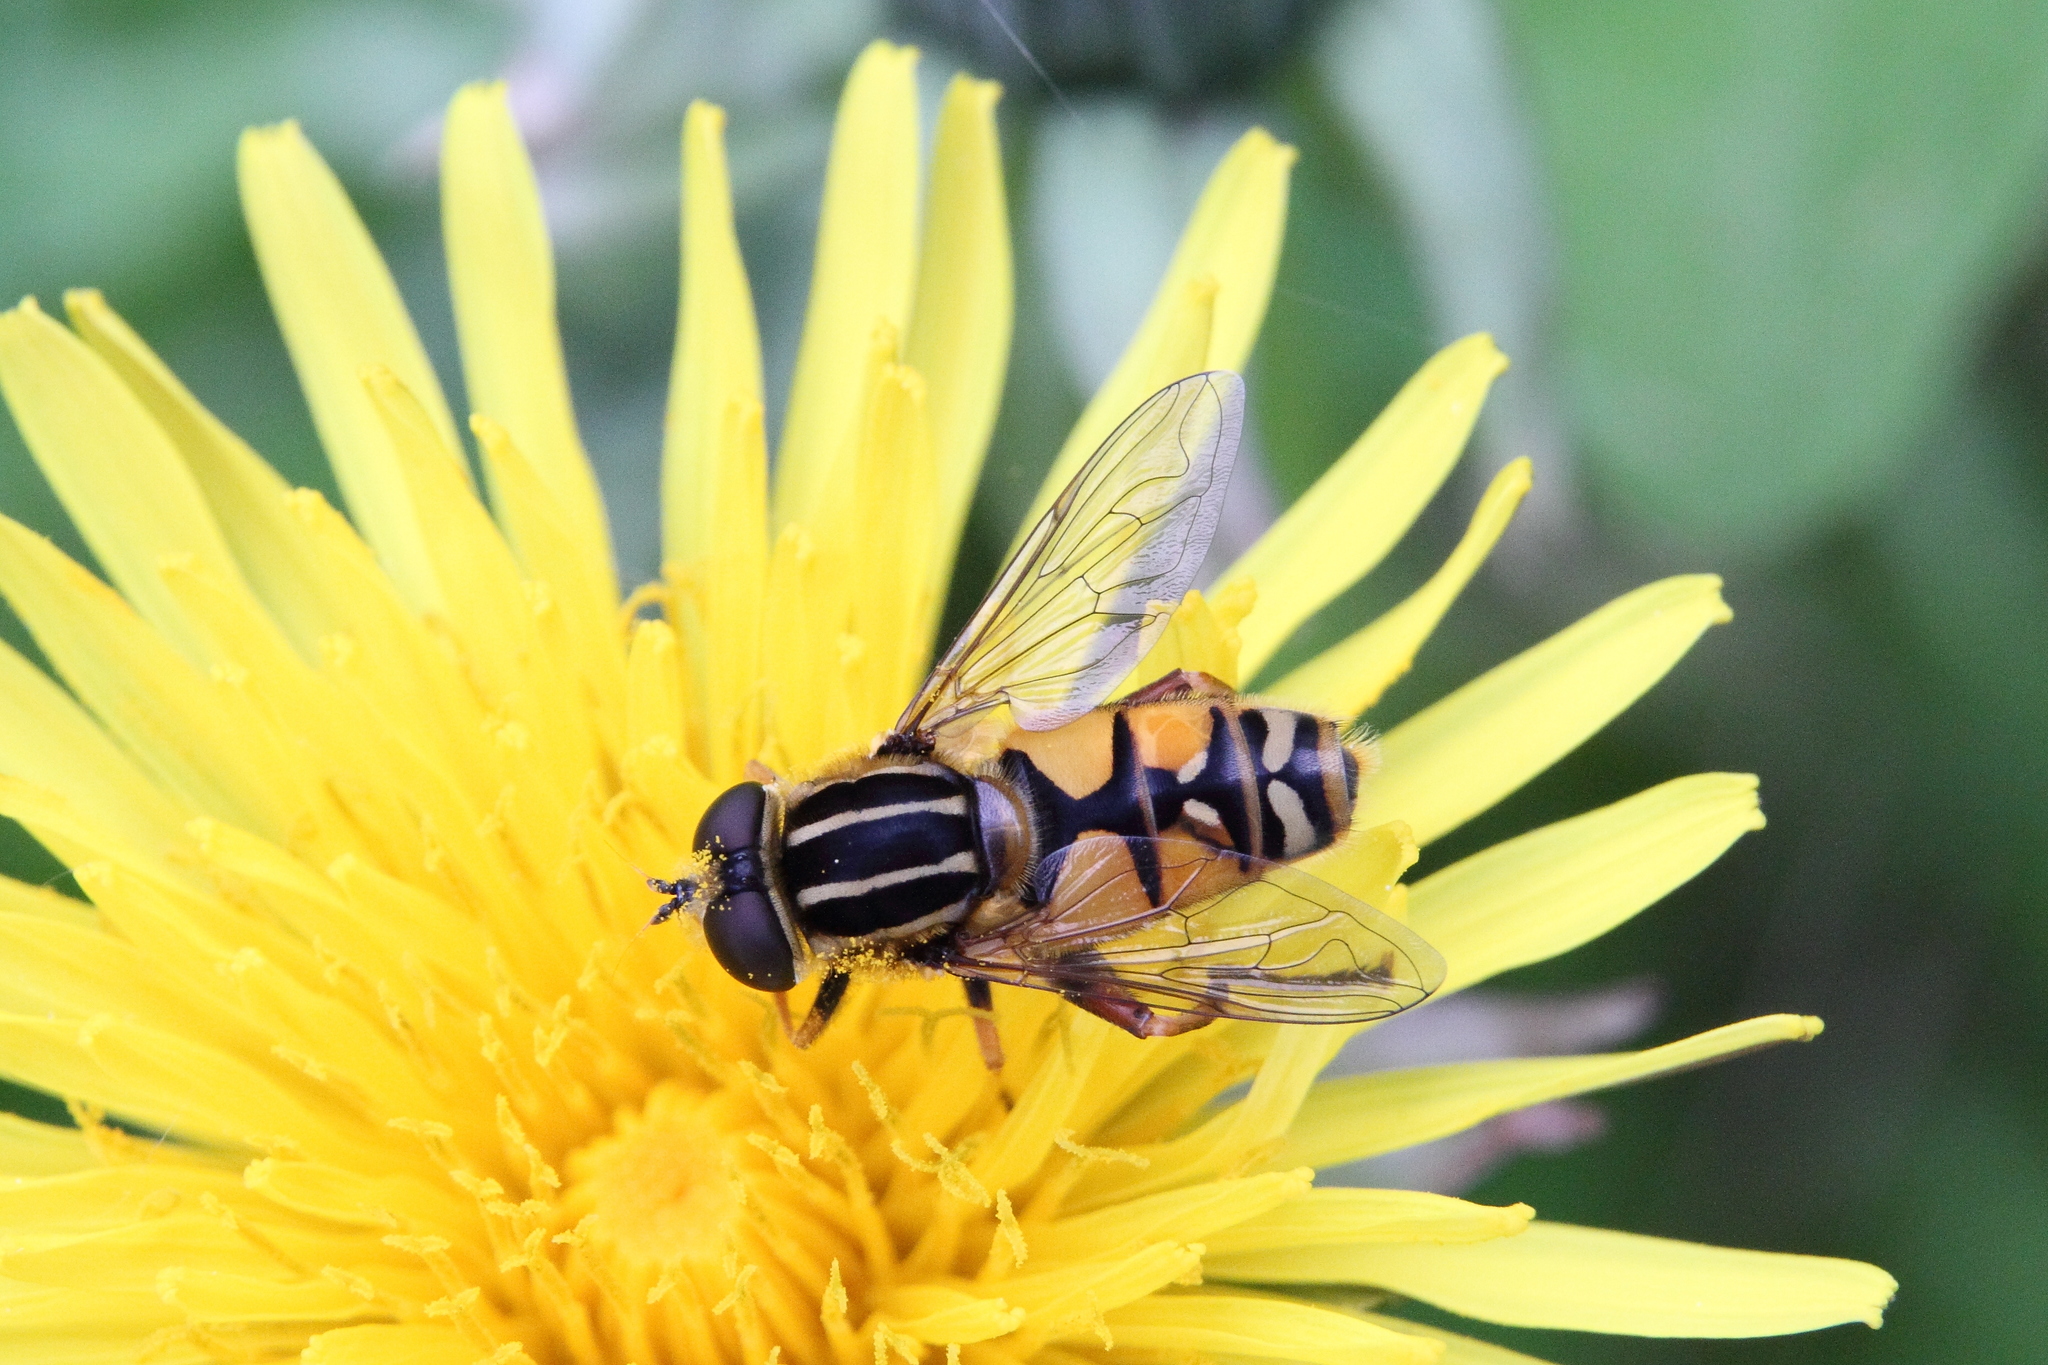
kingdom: Animalia
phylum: Arthropoda
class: Insecta
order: Diptera
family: Syrphidae
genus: Helophilus
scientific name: Helophilus pendulus
